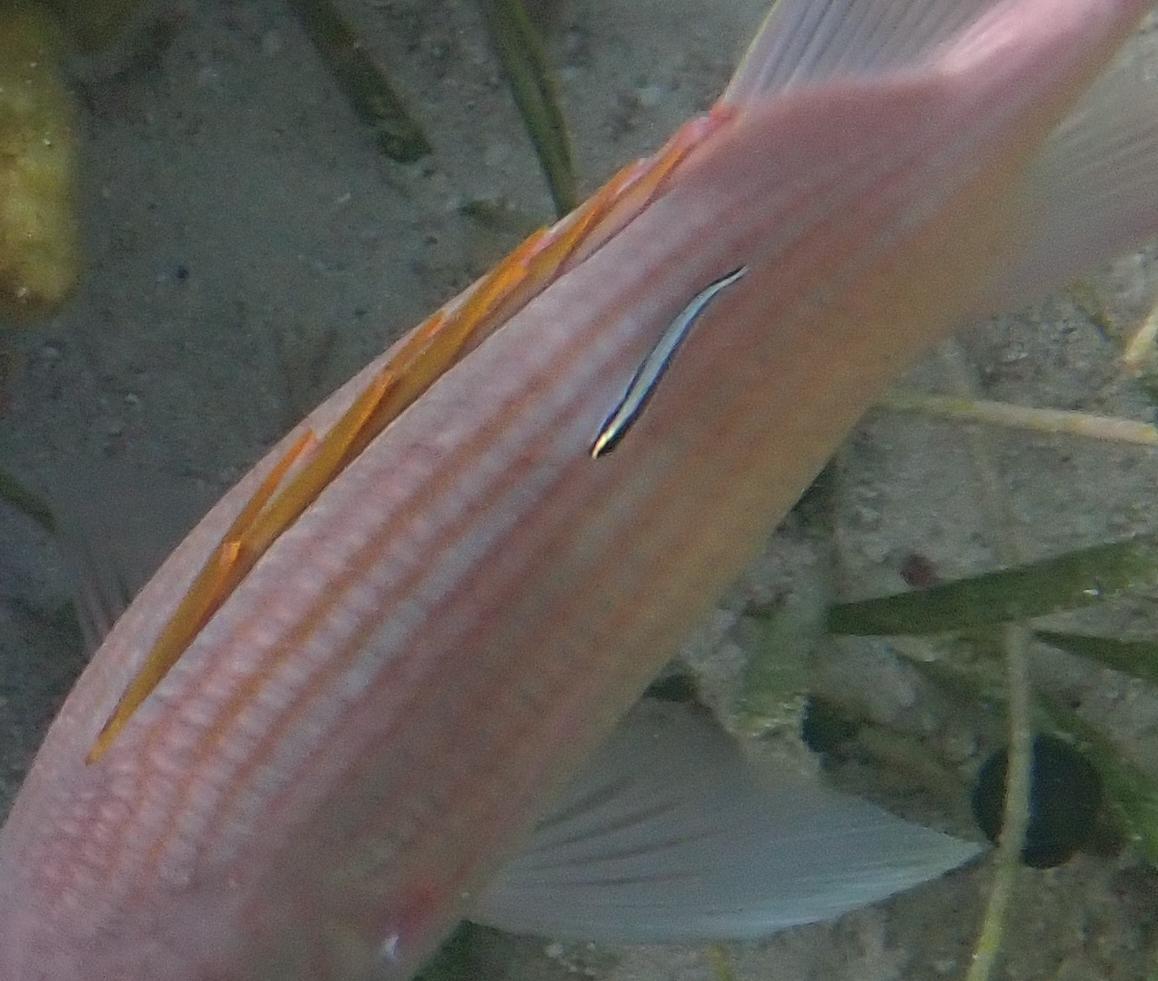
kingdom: Animalia
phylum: Chordata
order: Perciformes
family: Gobiidae
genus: Elacatinus
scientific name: Elacatinus genie
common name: Cleaner goby
